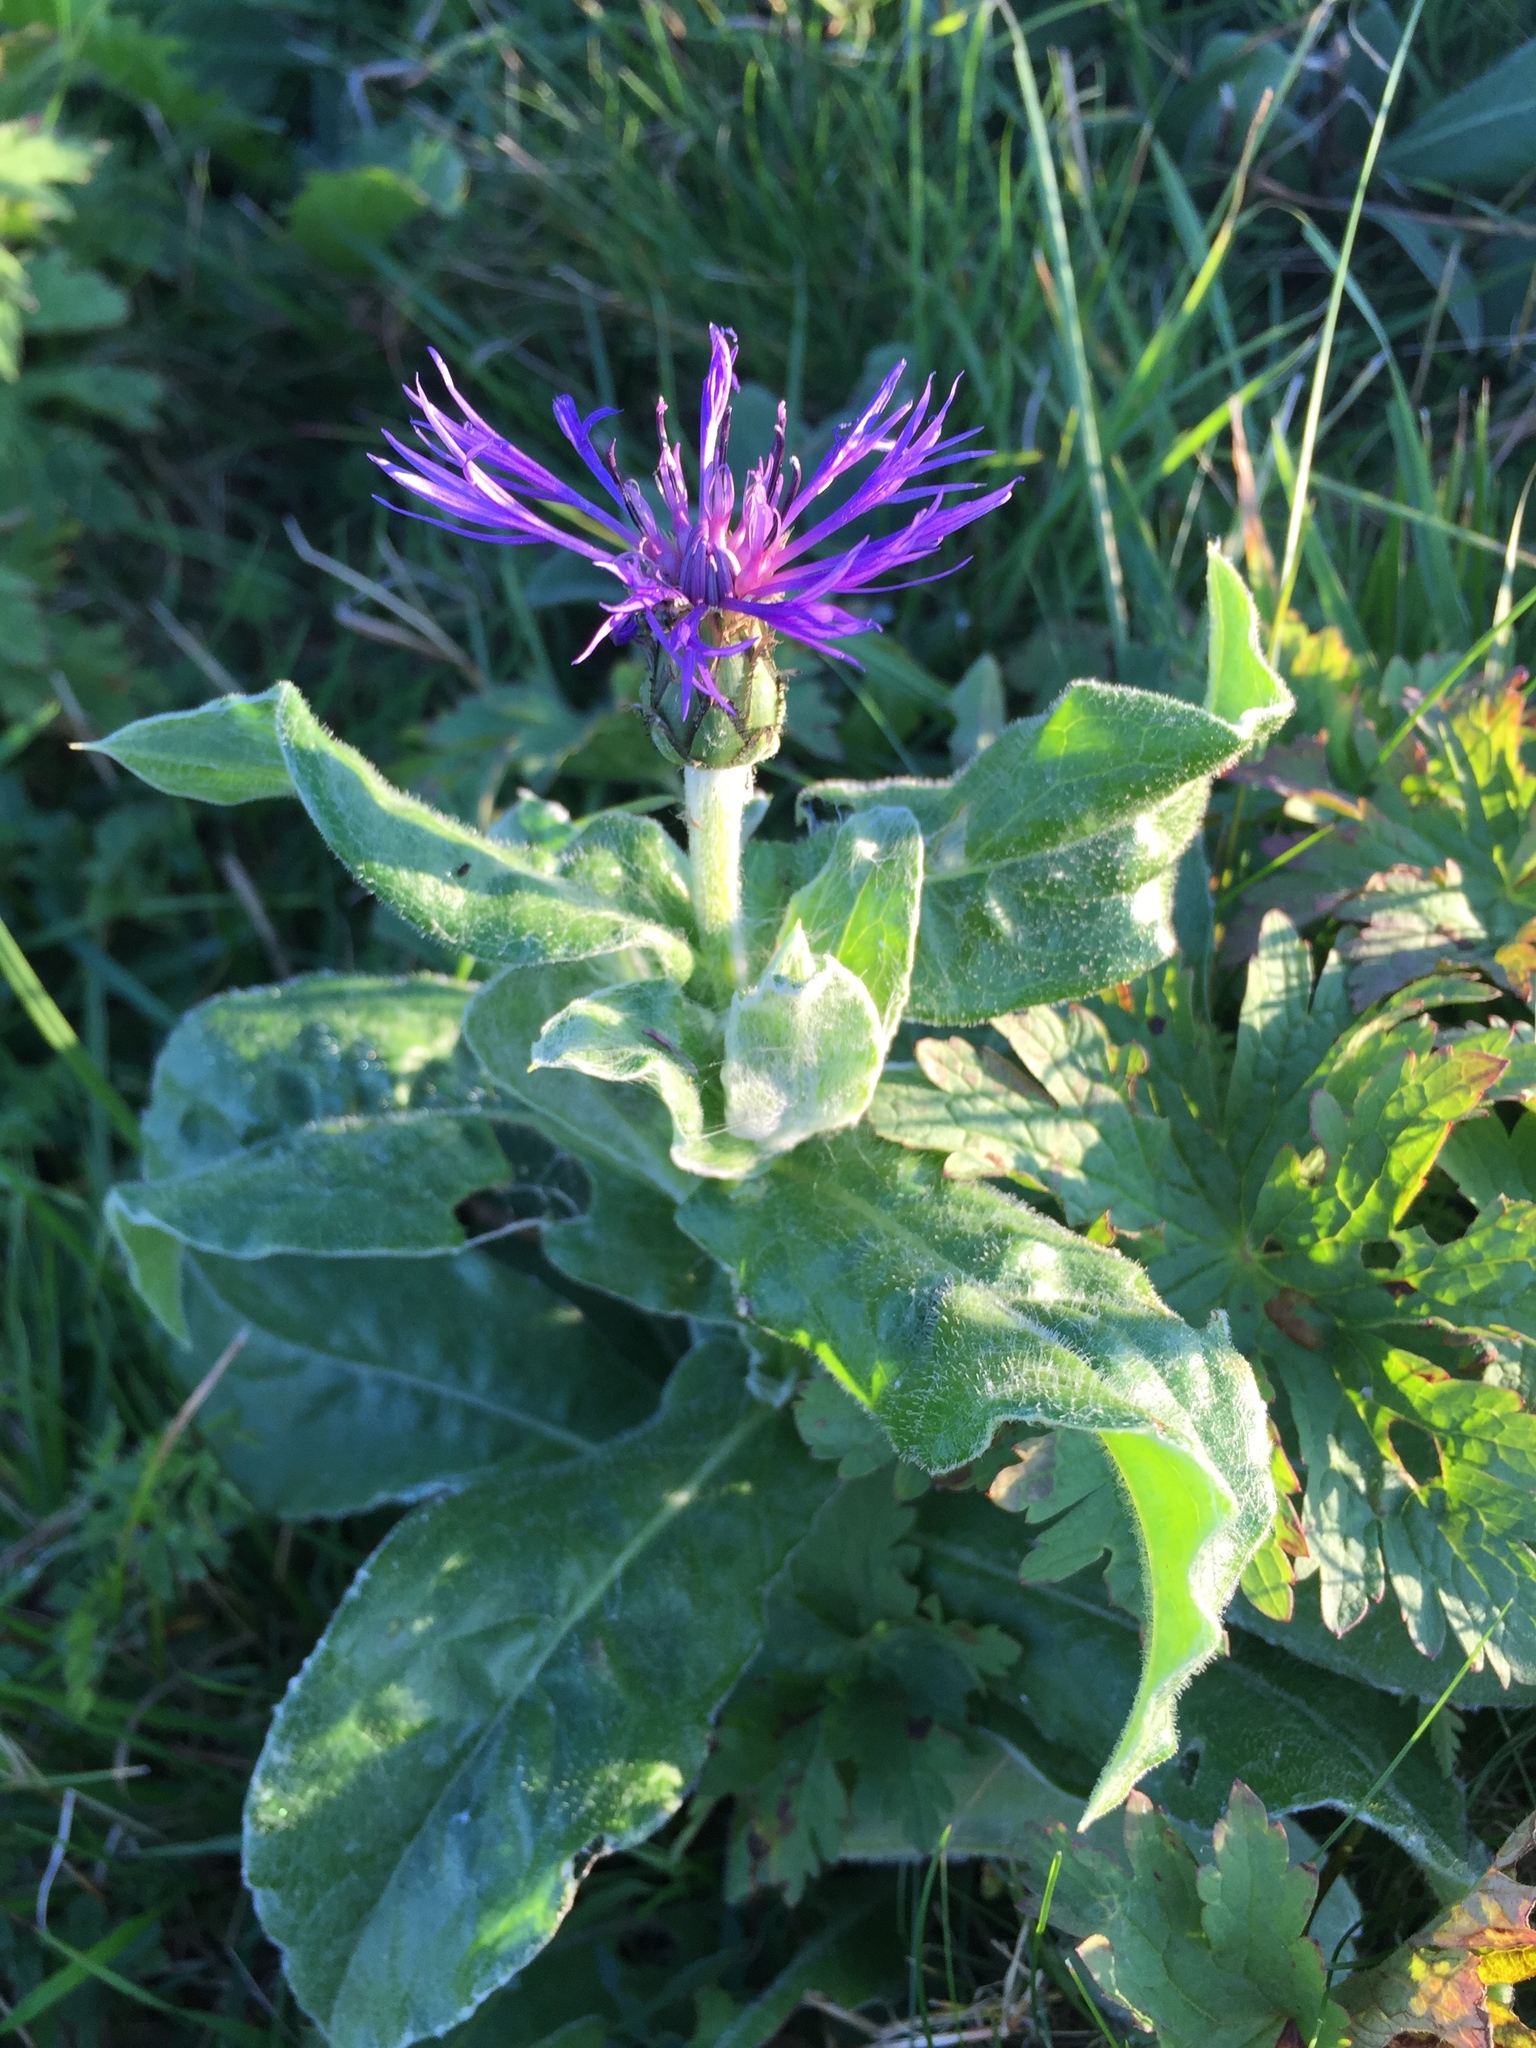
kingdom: Plantae
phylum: Tracheophyta
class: Magnoliopsida
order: Asterales
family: Asteraceae
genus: Centaurea
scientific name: Centaurea montana
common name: Perennial cornflower
